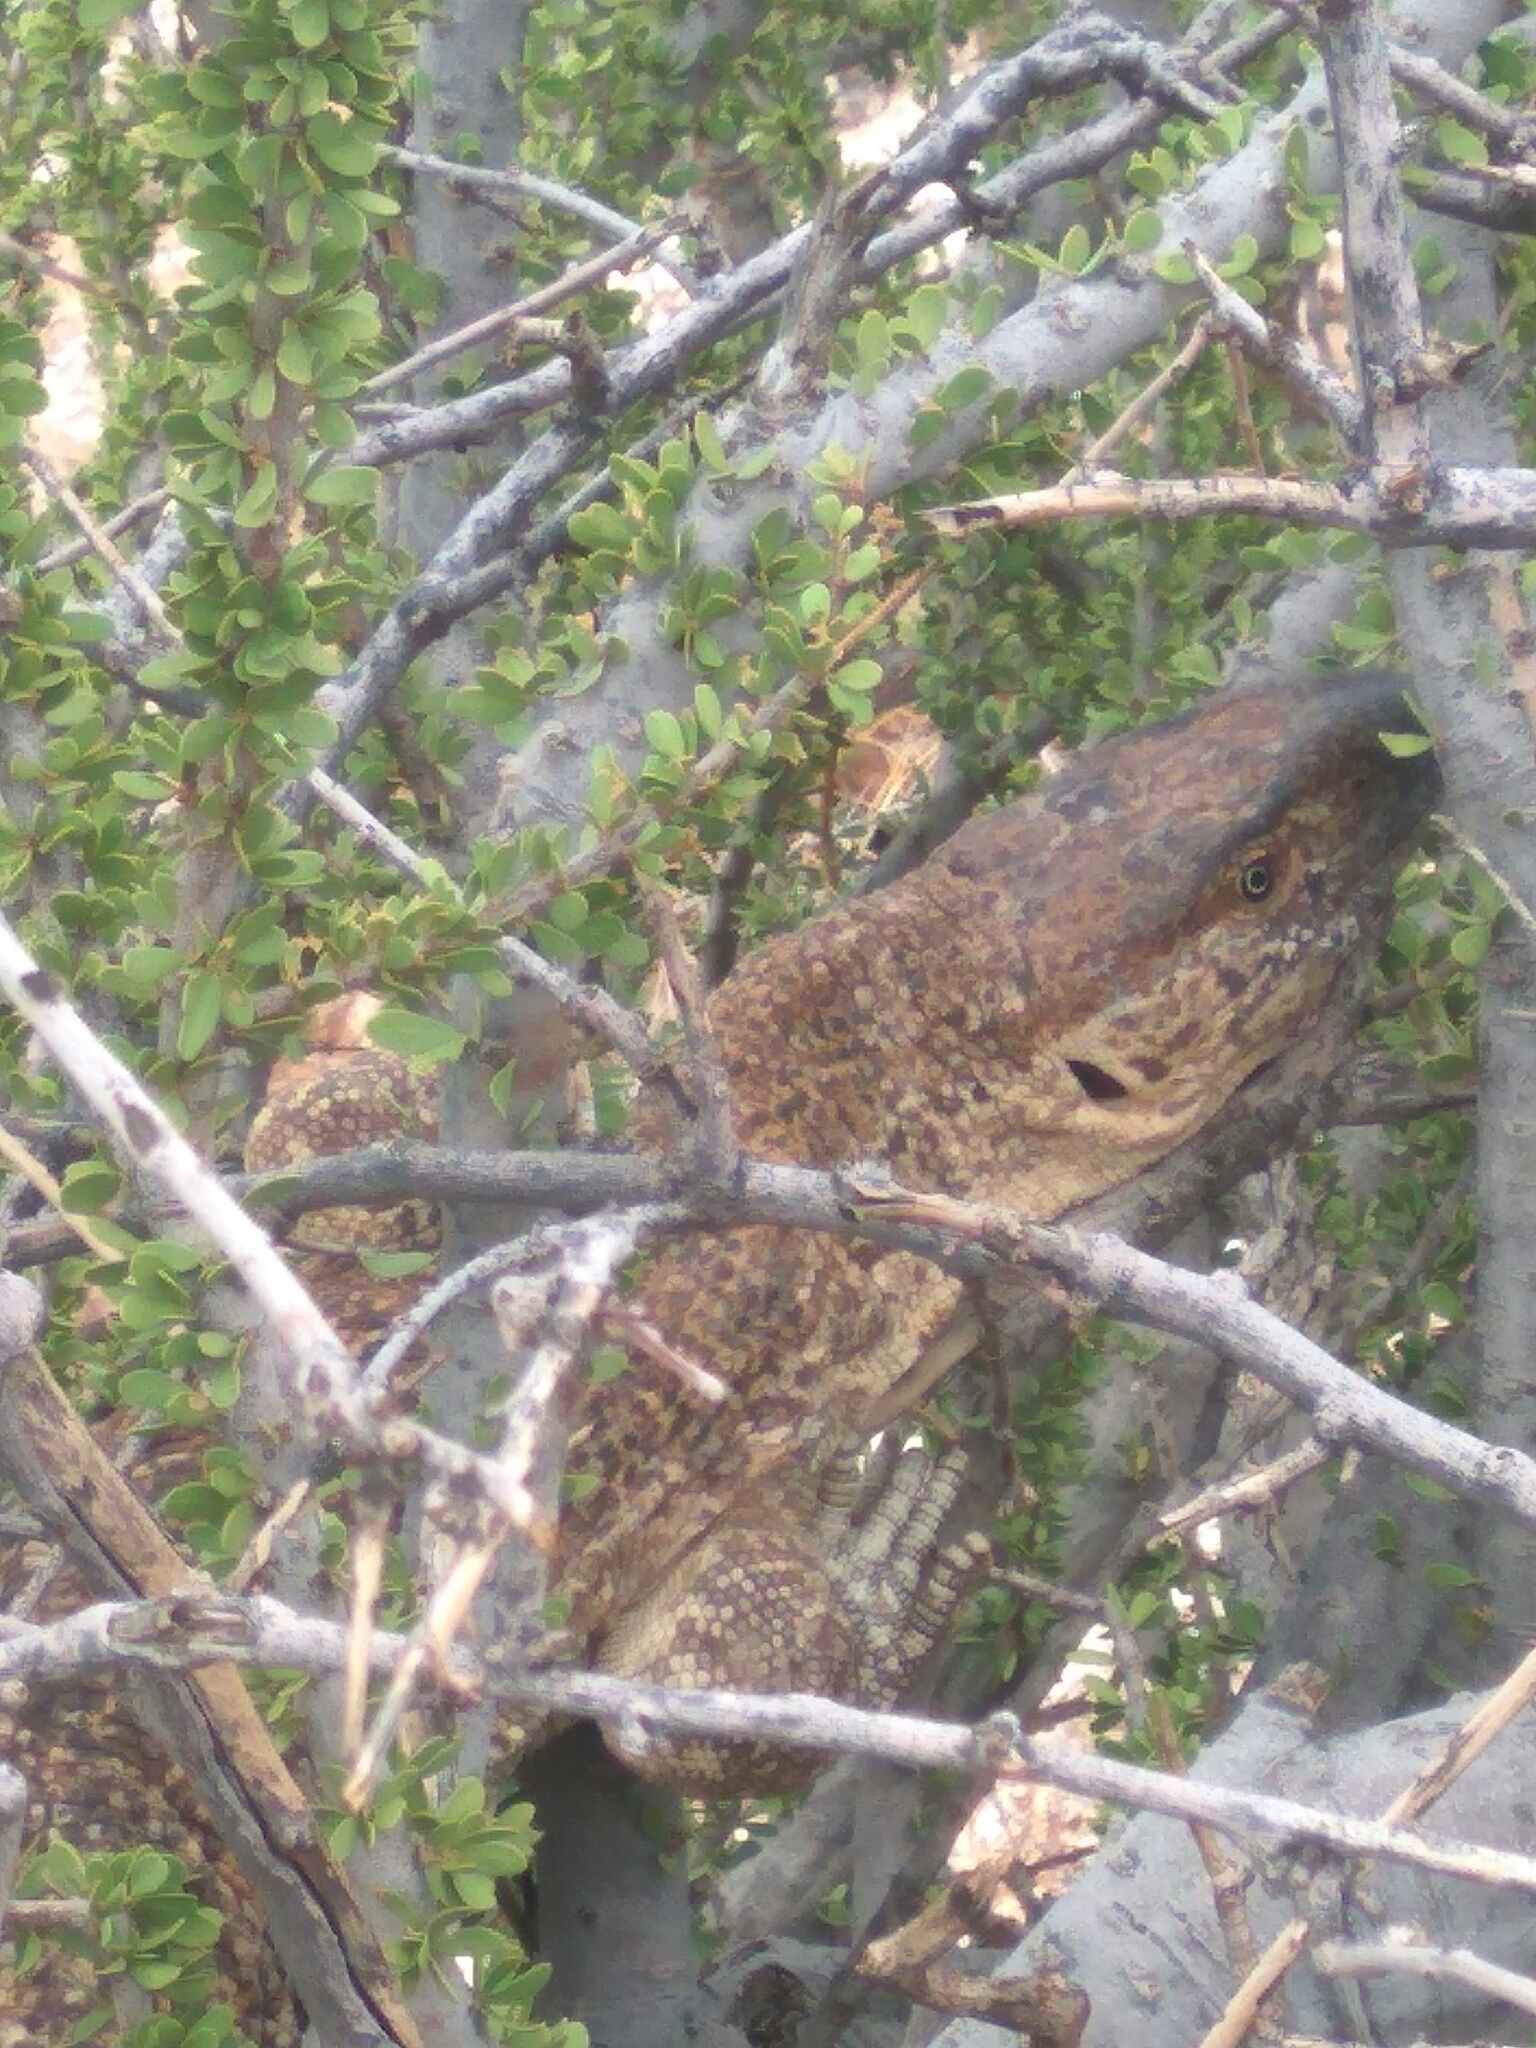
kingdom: Animalia
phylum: Chordata
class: Squamata
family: Varanidae
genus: Varanus
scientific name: Varanus albigularis
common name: White-throated monitor
